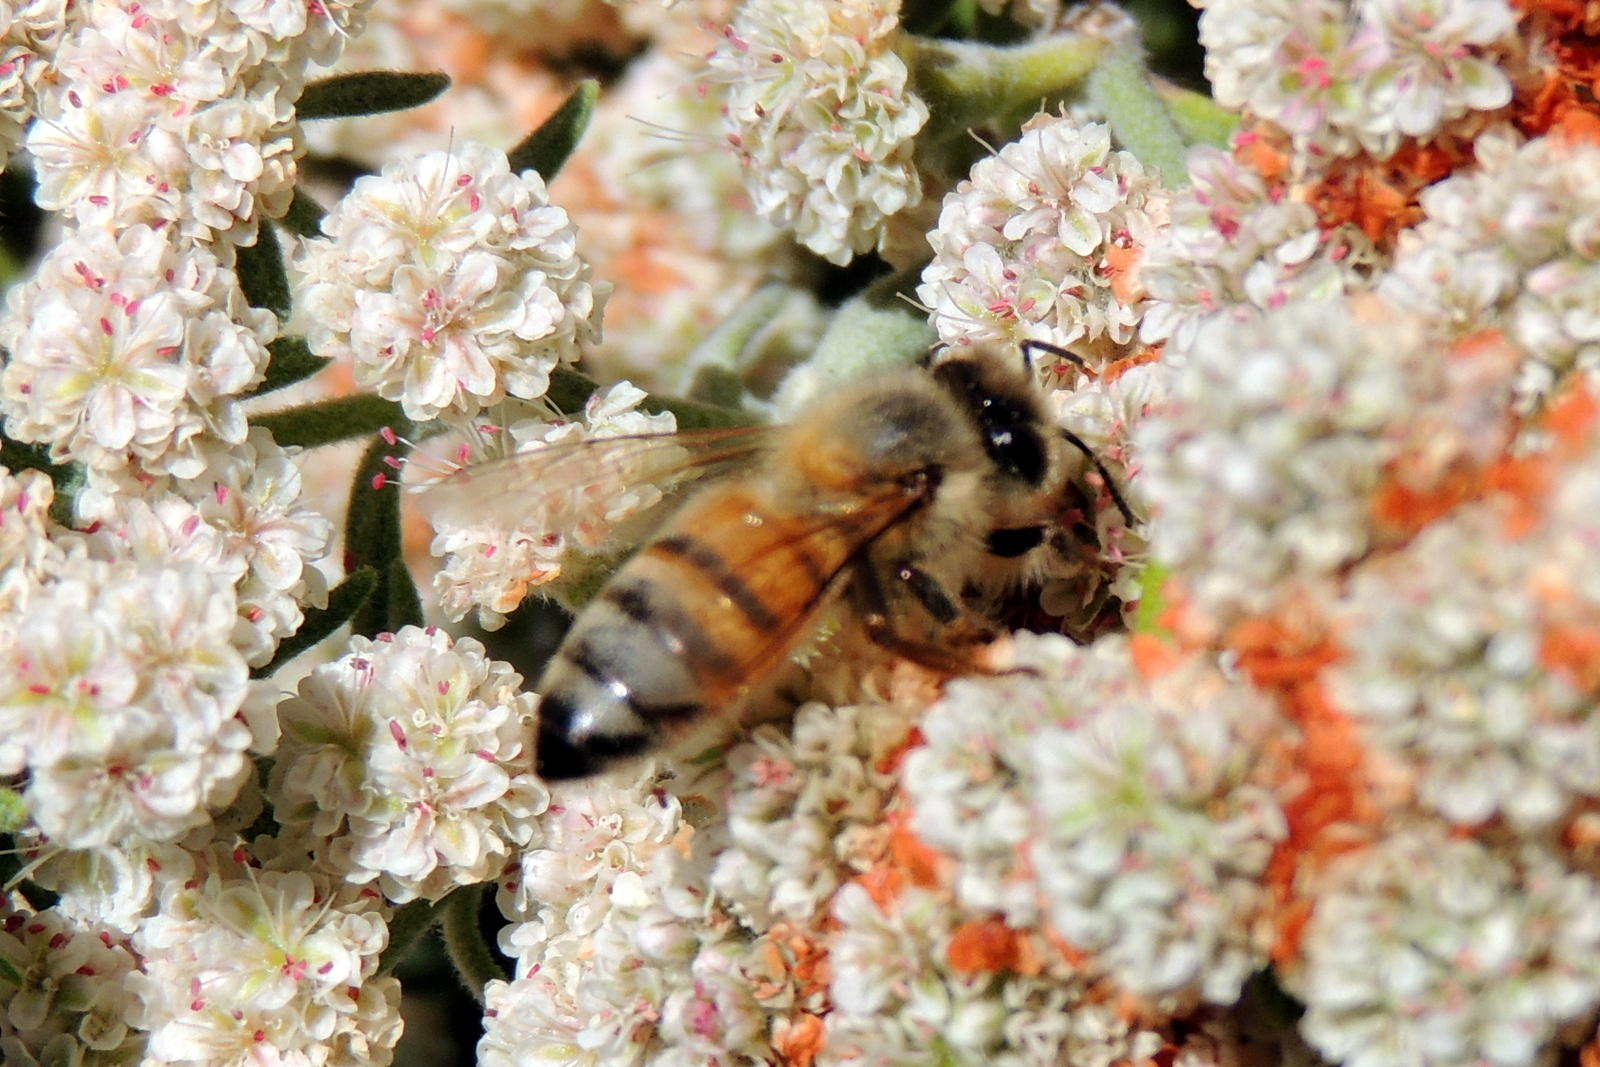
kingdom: Animalia
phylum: Arthropoda
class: Insecta
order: Hymenoptera
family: Apidae
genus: Apis
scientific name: Apis mellifera
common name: Honey bee
